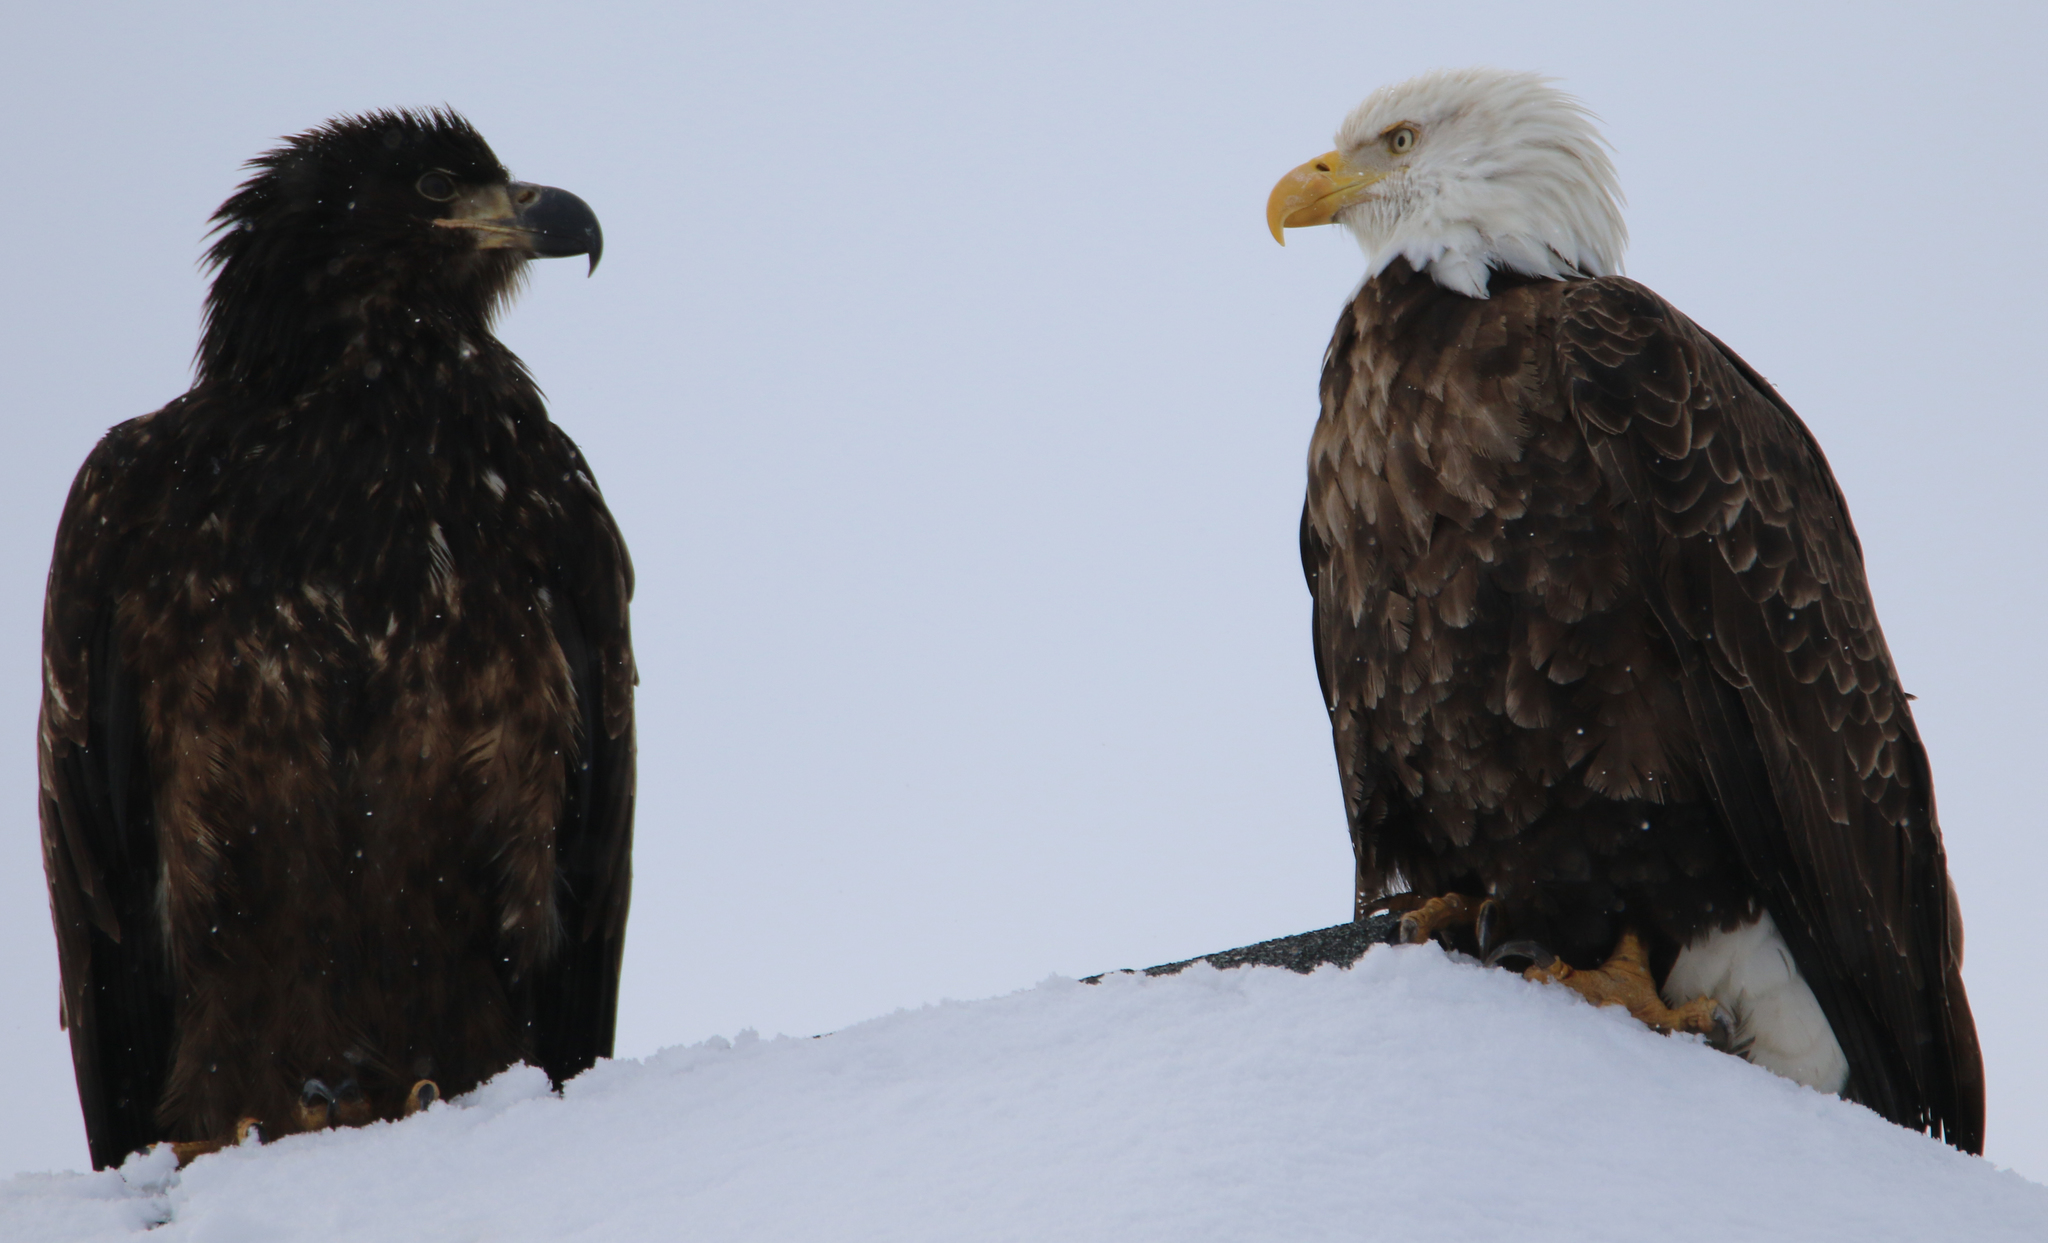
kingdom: Animalia
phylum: Chordata
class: Aves
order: Accipitriformes
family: Accipitridae
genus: Haliaeetus
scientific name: Haliaeetus leucocephalus
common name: Bald eagle
